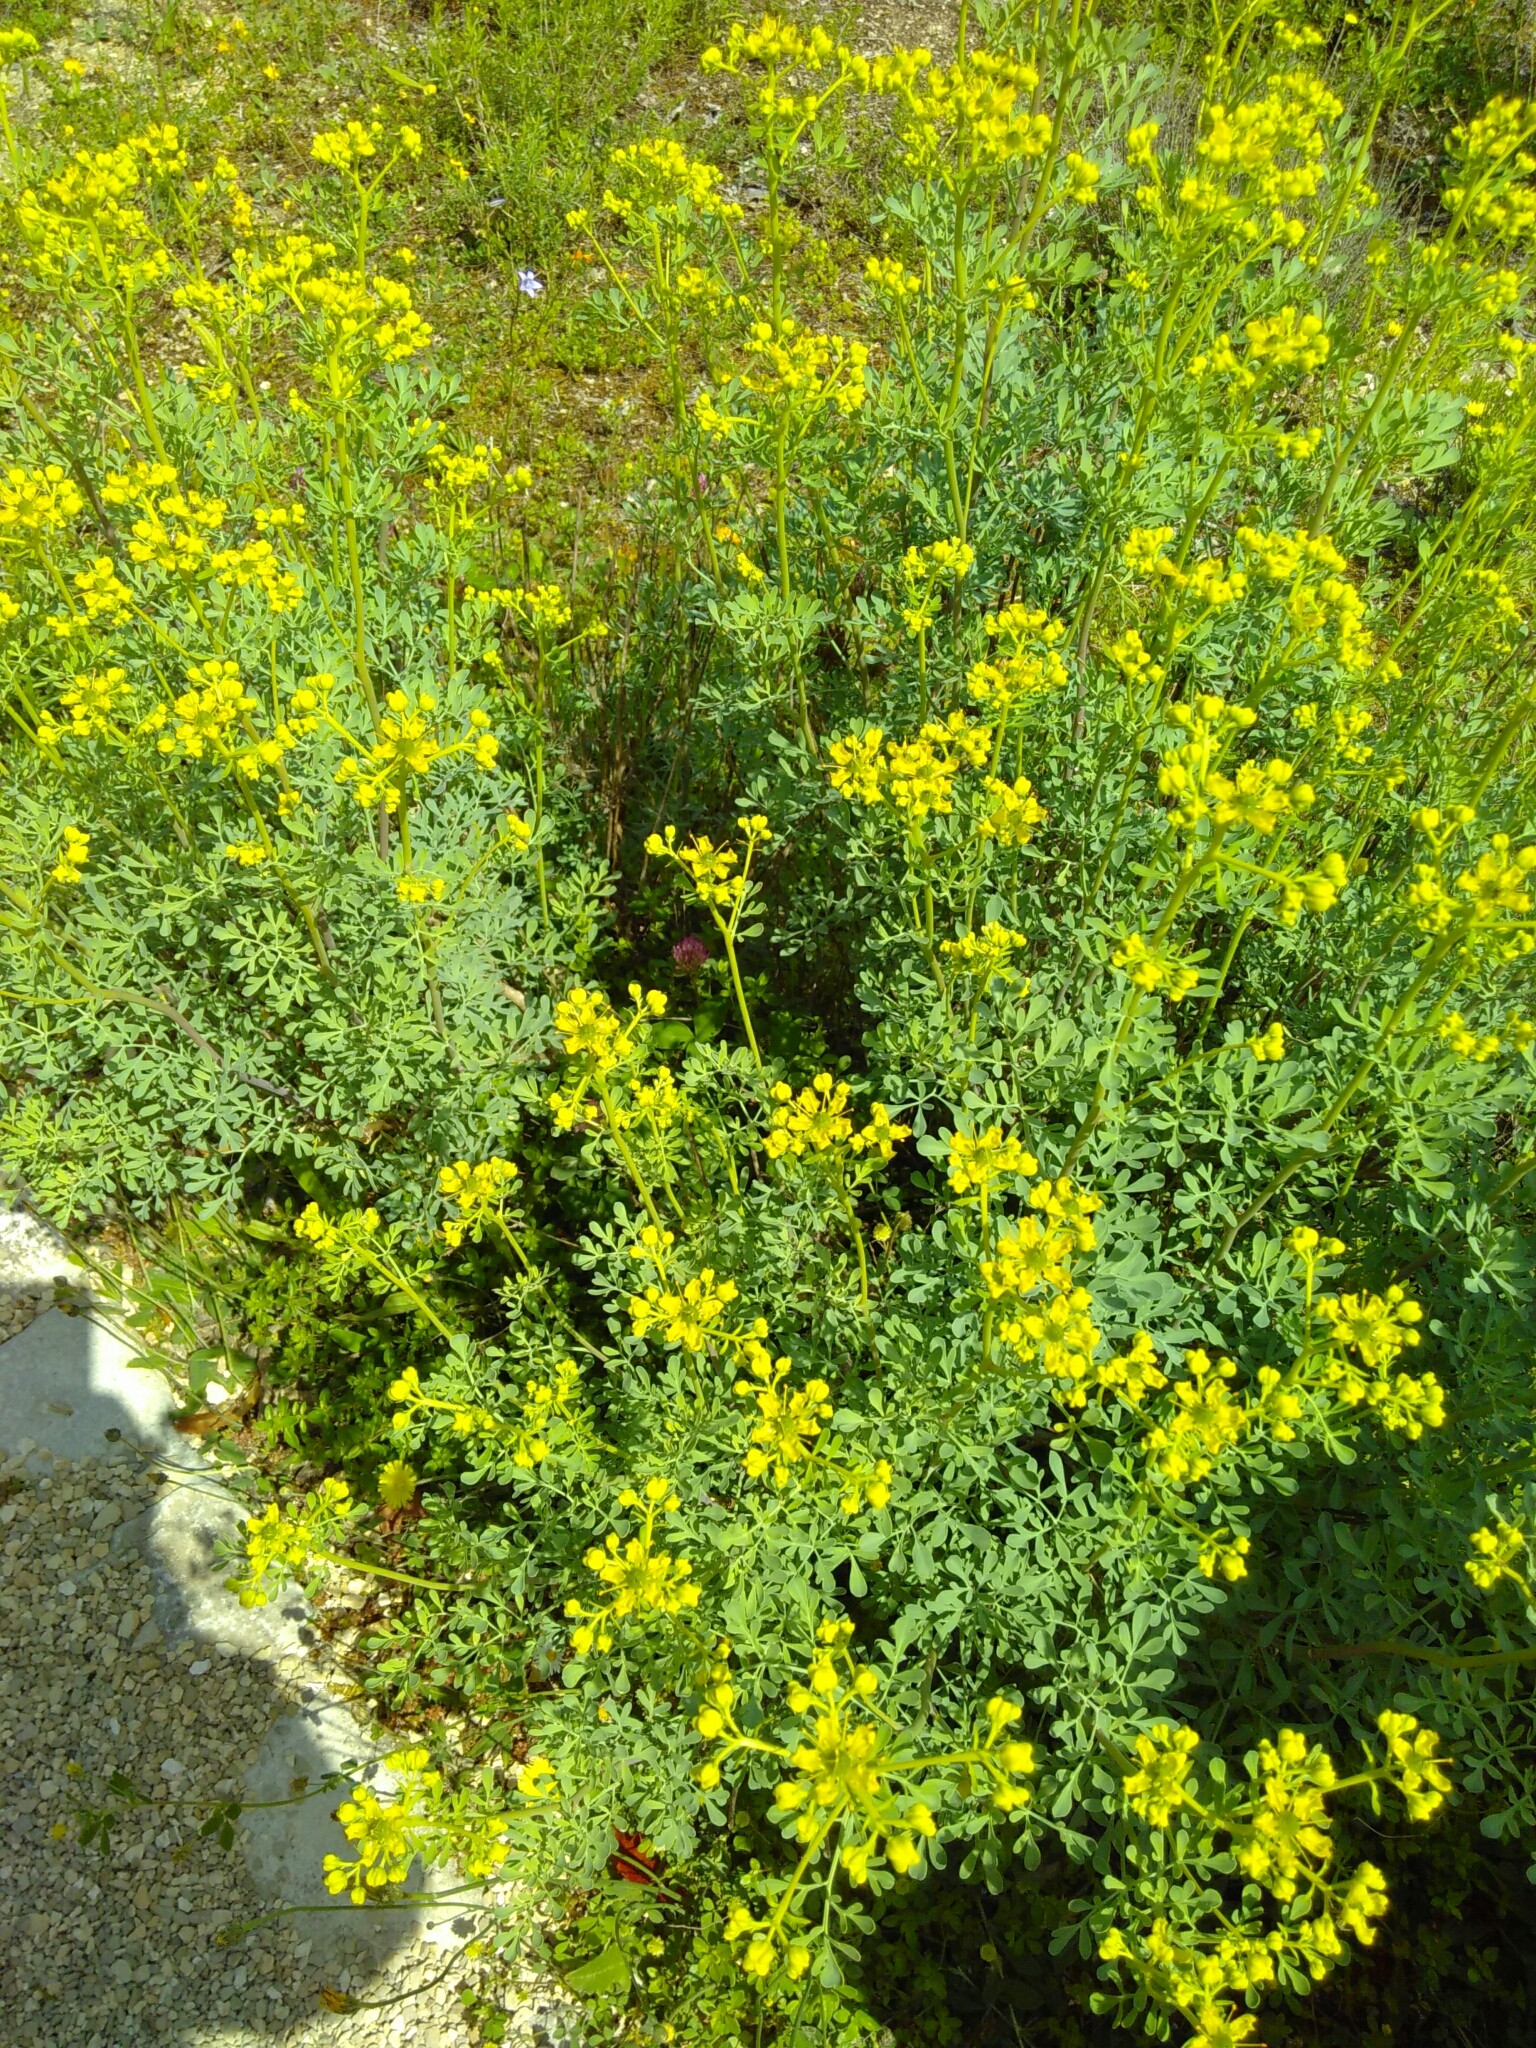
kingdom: Plantae
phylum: Tracheophyta
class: Magnoliopsida
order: Sapindales
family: Rutaceae
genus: Ruta
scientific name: Ruta graveolens
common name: Common rue
